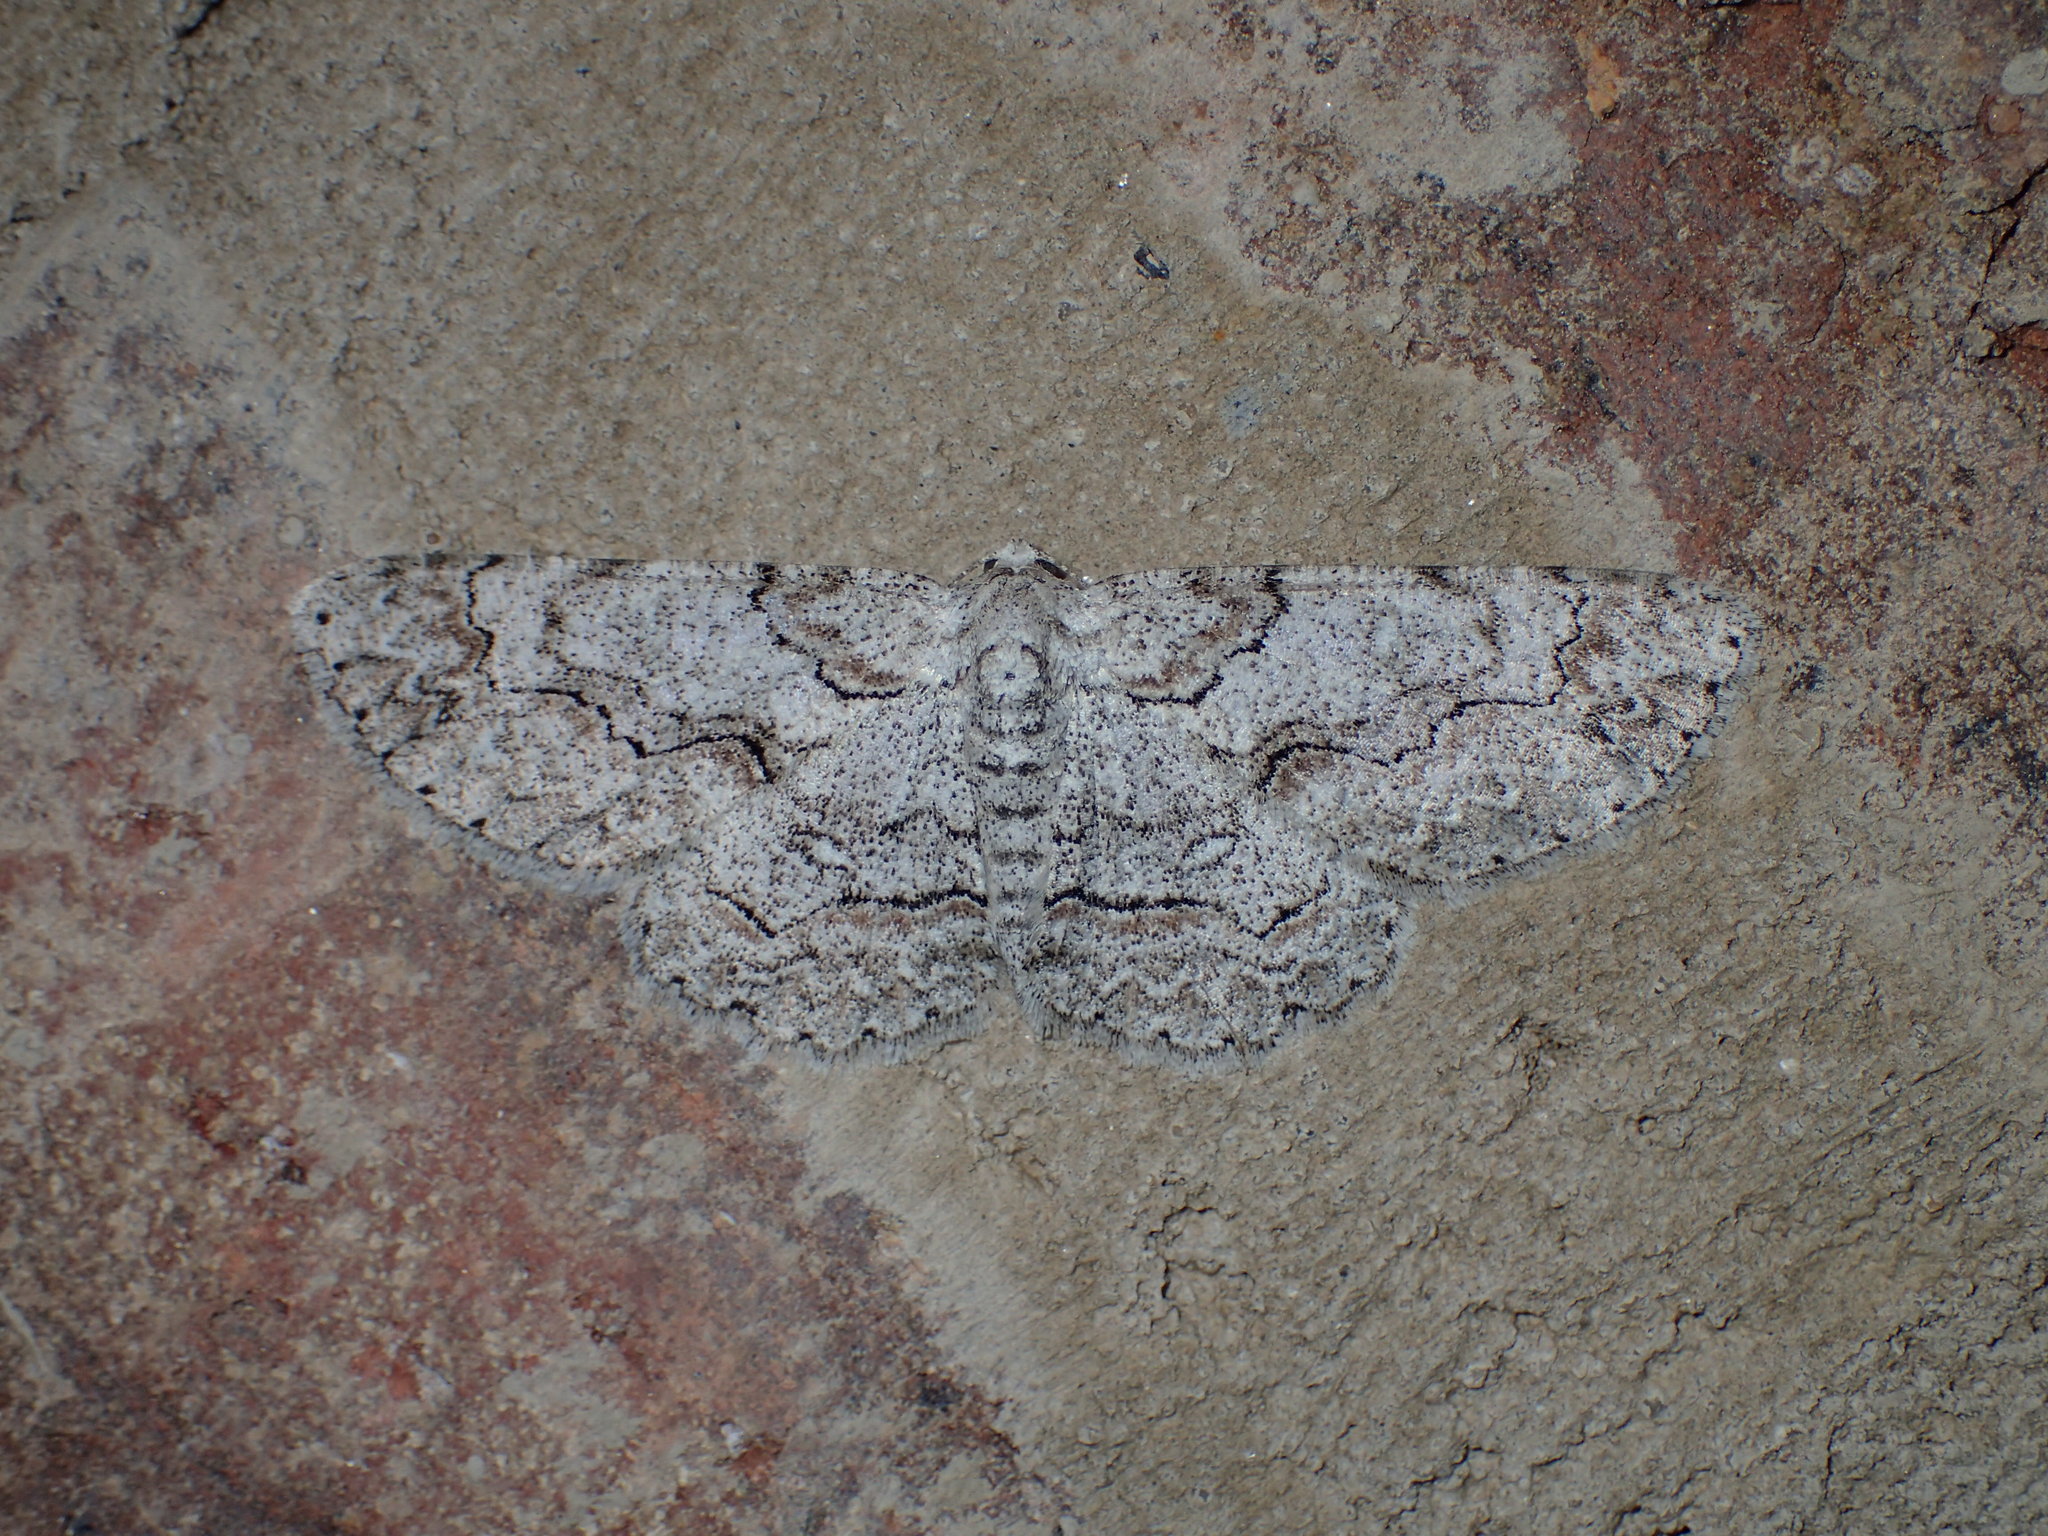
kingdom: Animalia
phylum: Arthropoda
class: Insecta
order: Lepidoptera
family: Geometridae
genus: Iridopsis
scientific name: Iridopsis defectaria
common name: Brown-shaded gray
